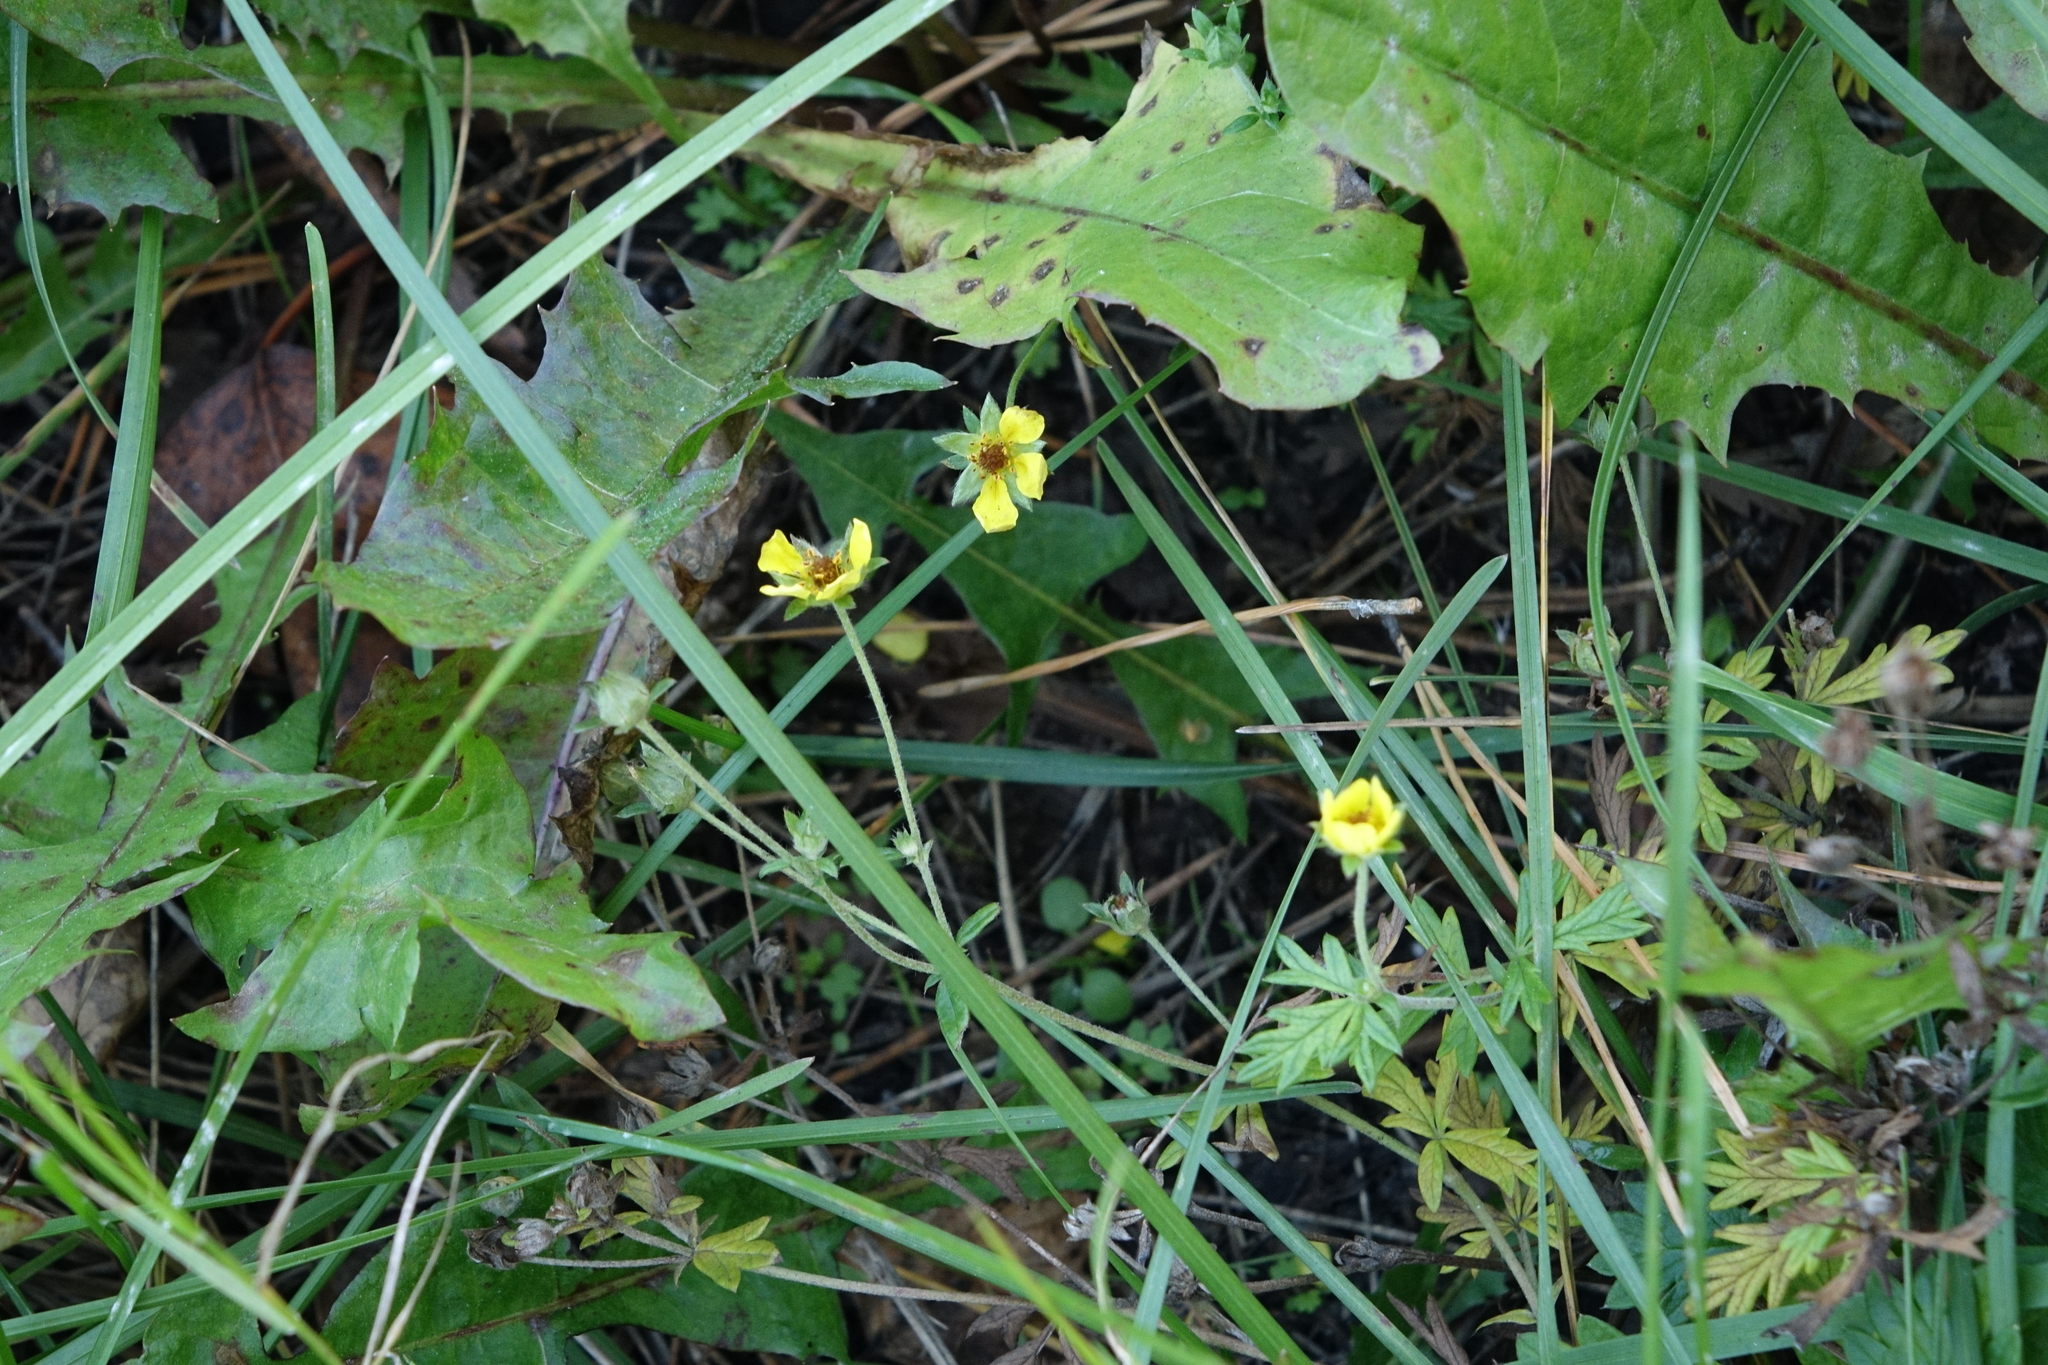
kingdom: Plantae
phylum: Tracheophyta
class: Magnoliopsida
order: Rosales
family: Rosaceae
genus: Potentilla
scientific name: Potentilla argentea
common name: Hoary cinquefoil
